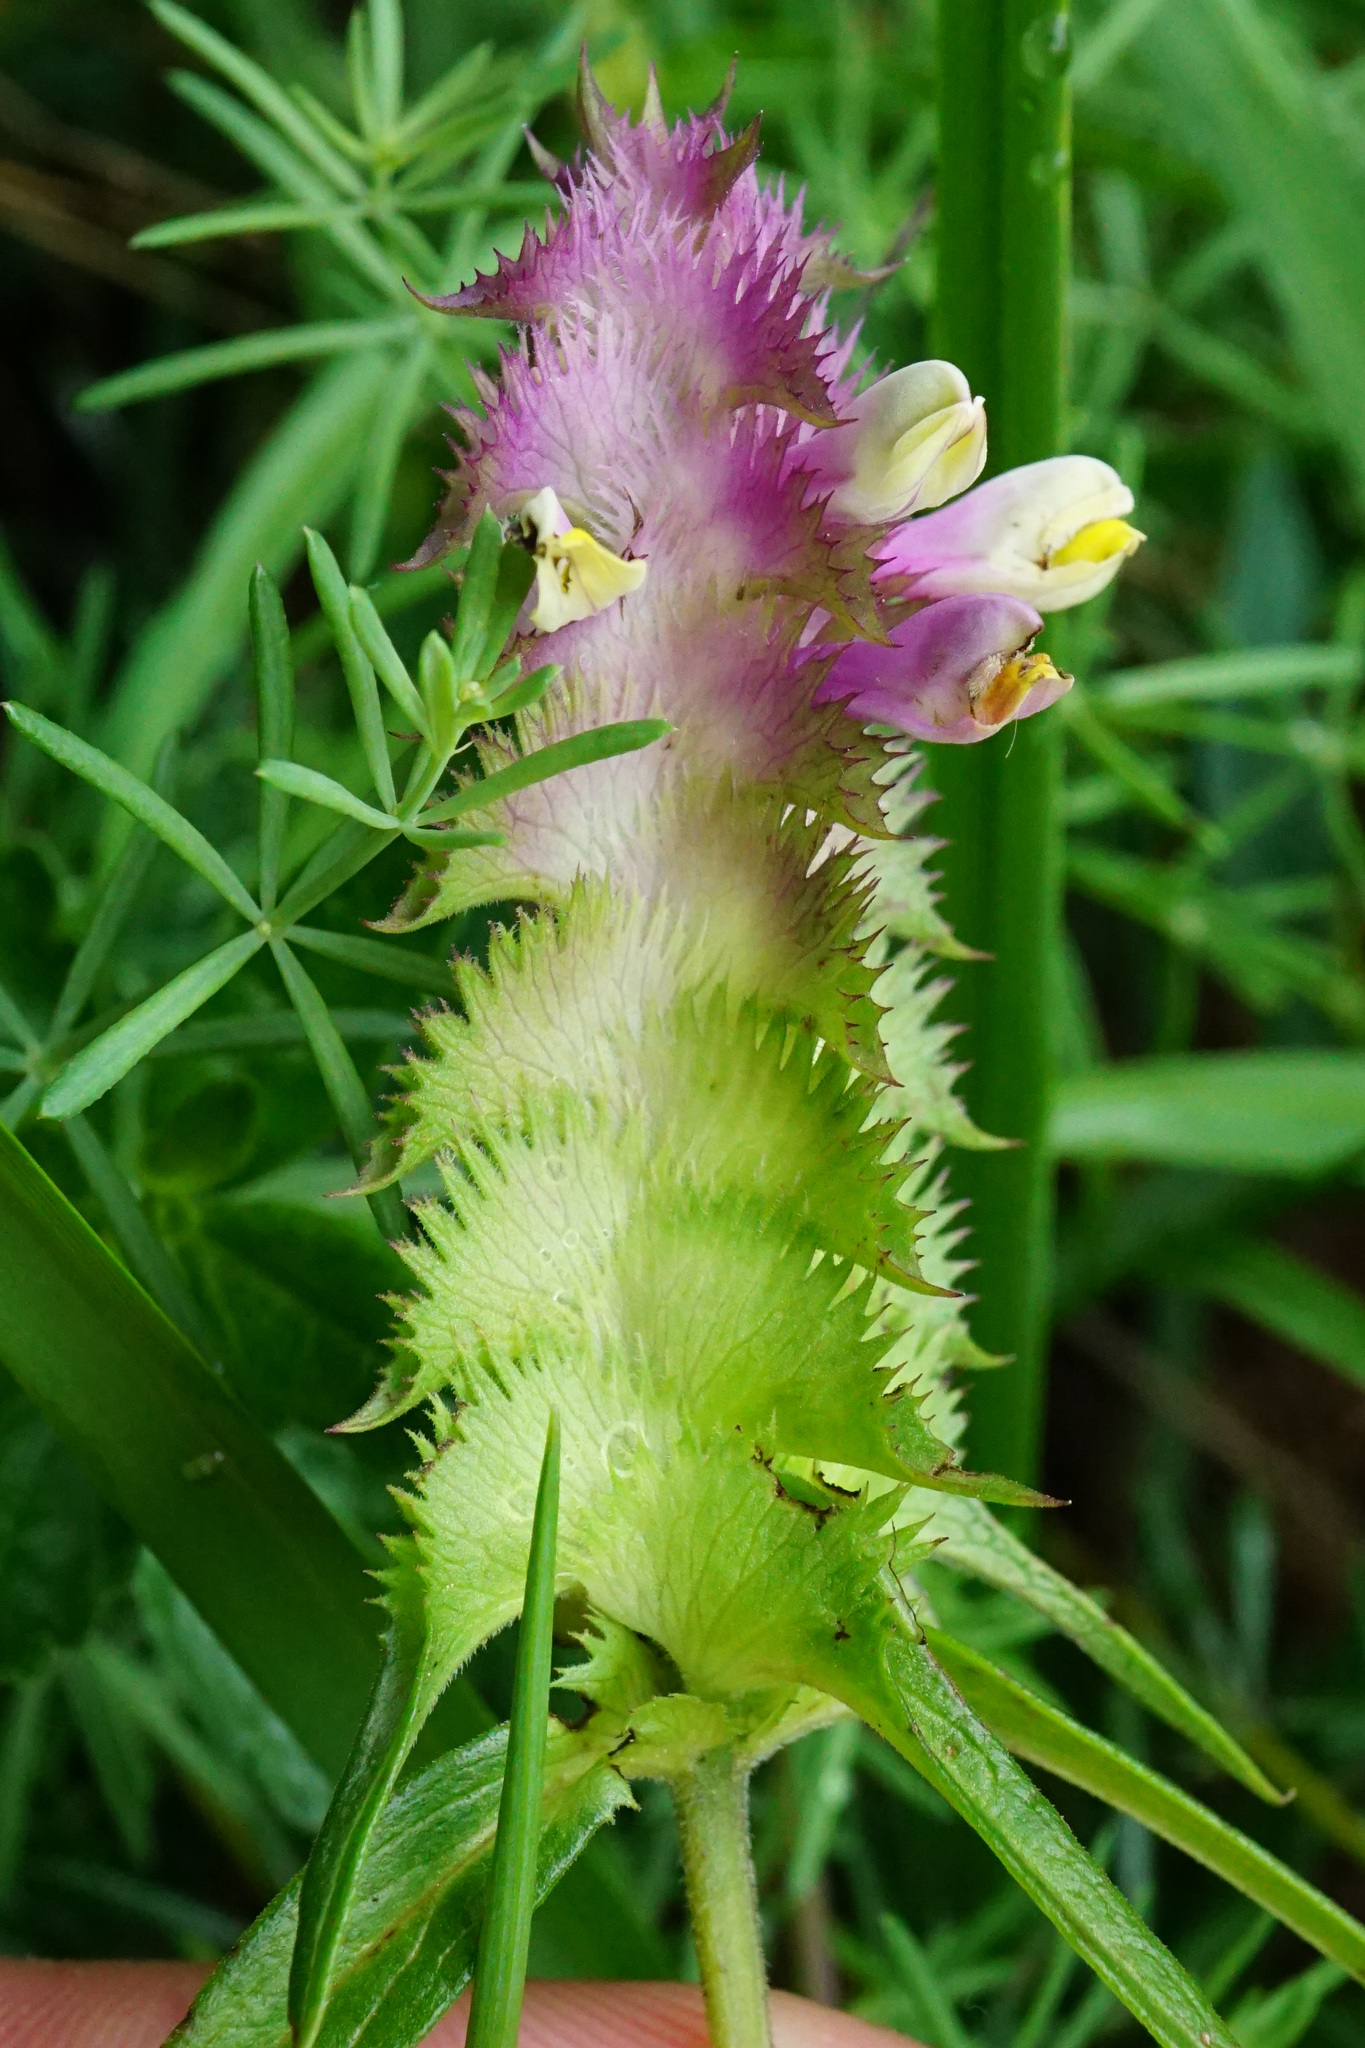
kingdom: Plantae
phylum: Tracheophyta
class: Magnoliopsida
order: Lamiales
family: Orobanchaceae
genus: Melampyrum
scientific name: Melampyrum cristatum
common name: Crested cow-wheat
